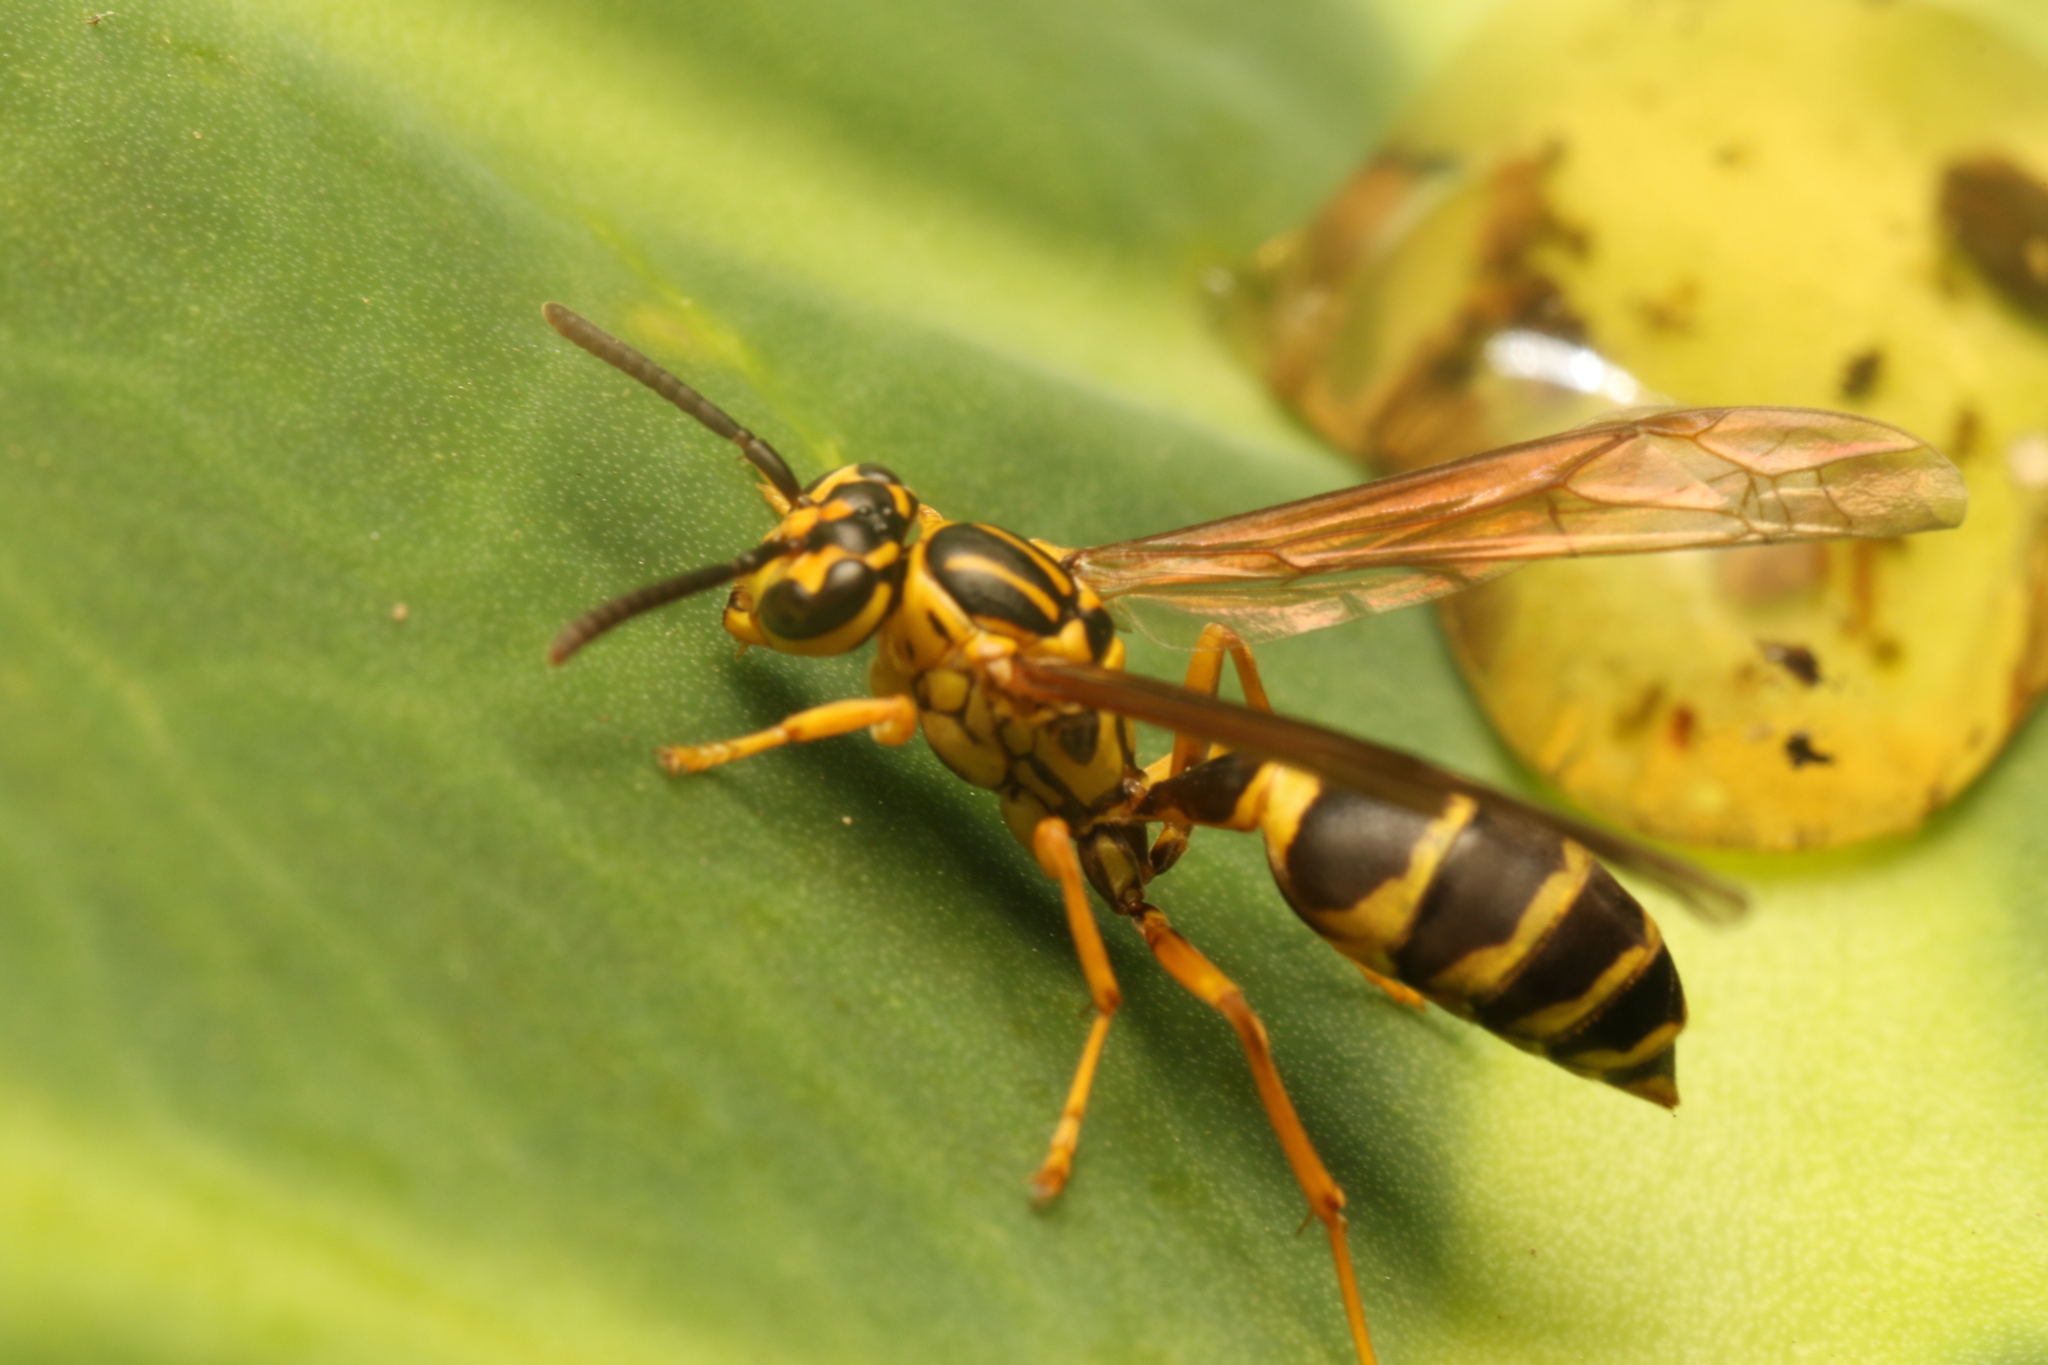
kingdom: Animalia
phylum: Arthropoda
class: Insecta
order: Hymenoptera
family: Vespidae
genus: Agelaia
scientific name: Agelaia multipicta
